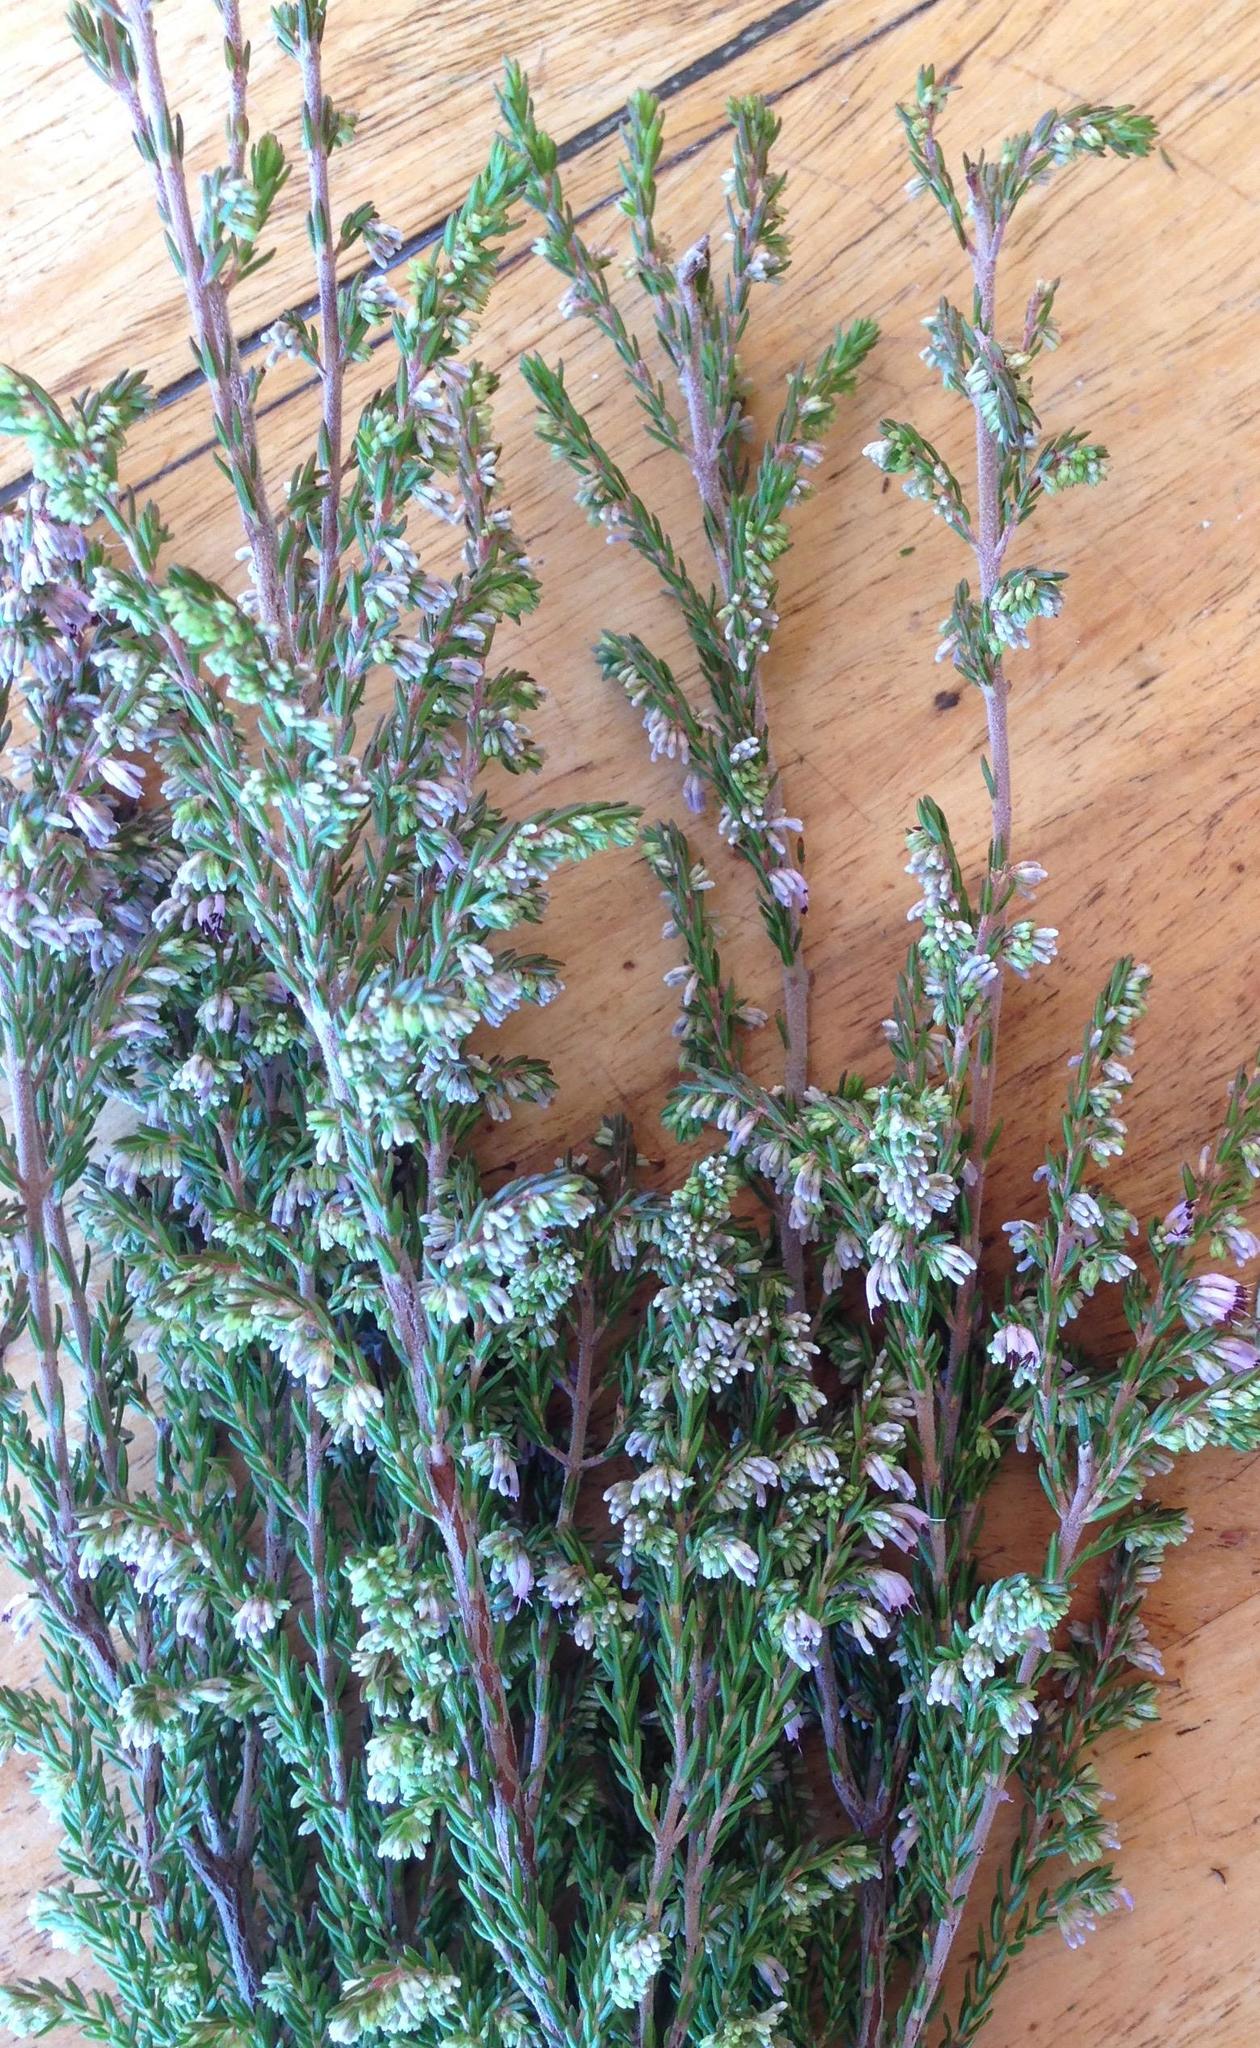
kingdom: Plantae
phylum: Tracheophyta
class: Magnoliopsida
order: Ericales
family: Ericaceae
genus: Erica
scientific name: Erica uberiflora
